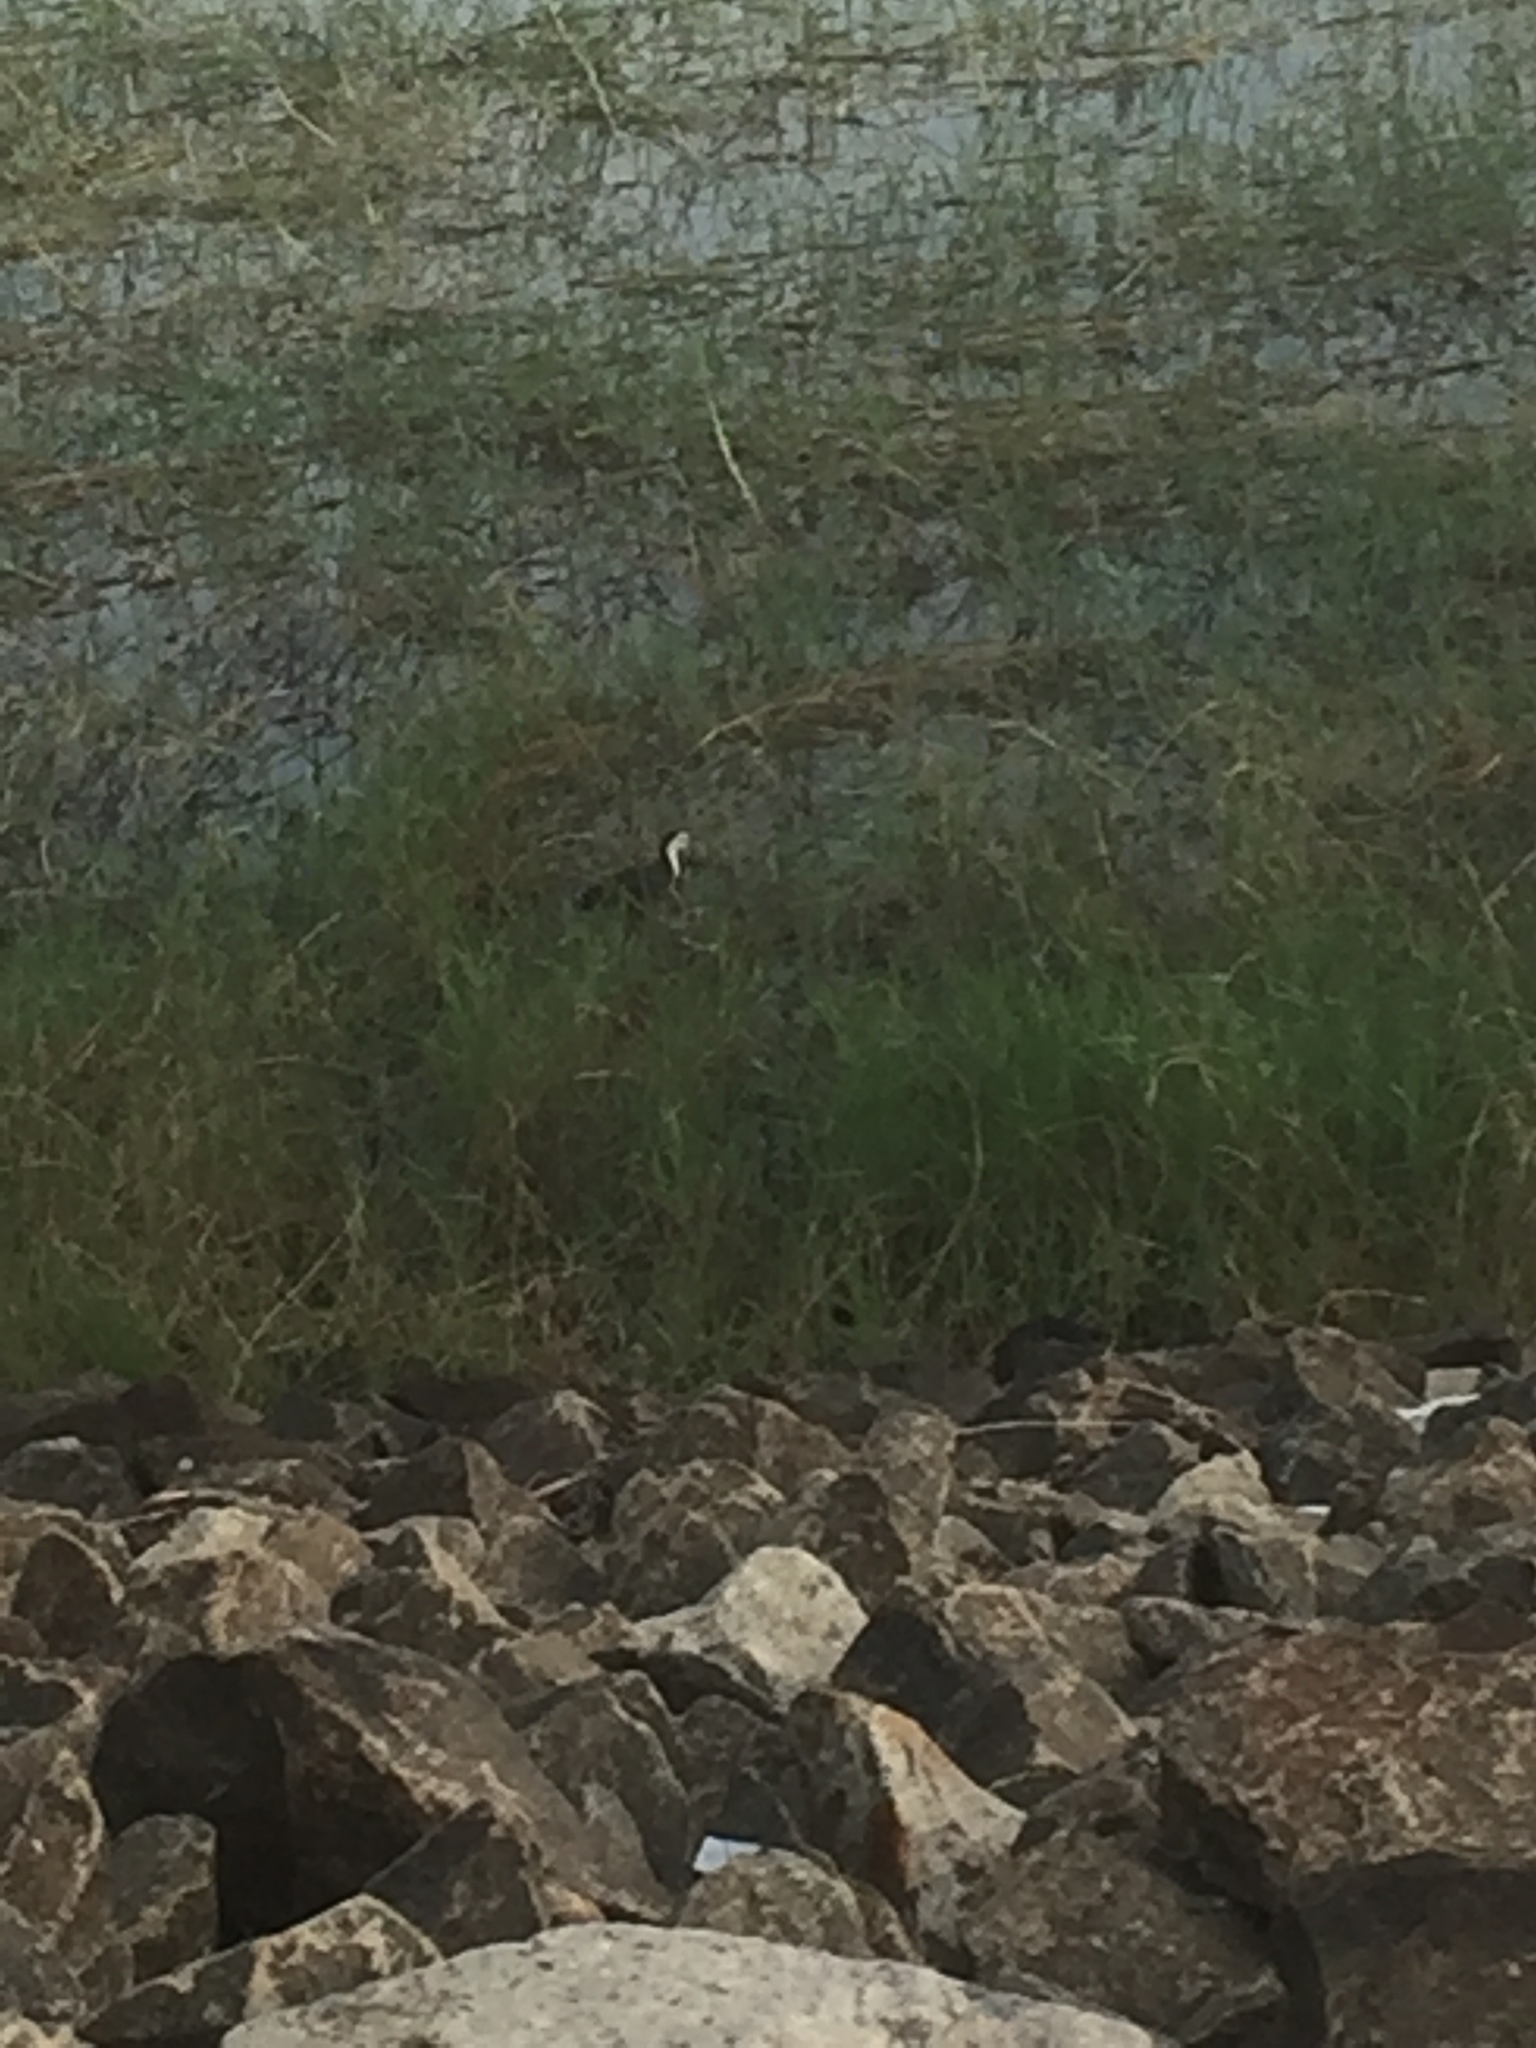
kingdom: Animalia
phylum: Chordata
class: Aves
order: Gruiformes
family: Rallidae
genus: Amaurornis
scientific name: Amaurornis phoenicurus
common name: White-breasted waterhen
